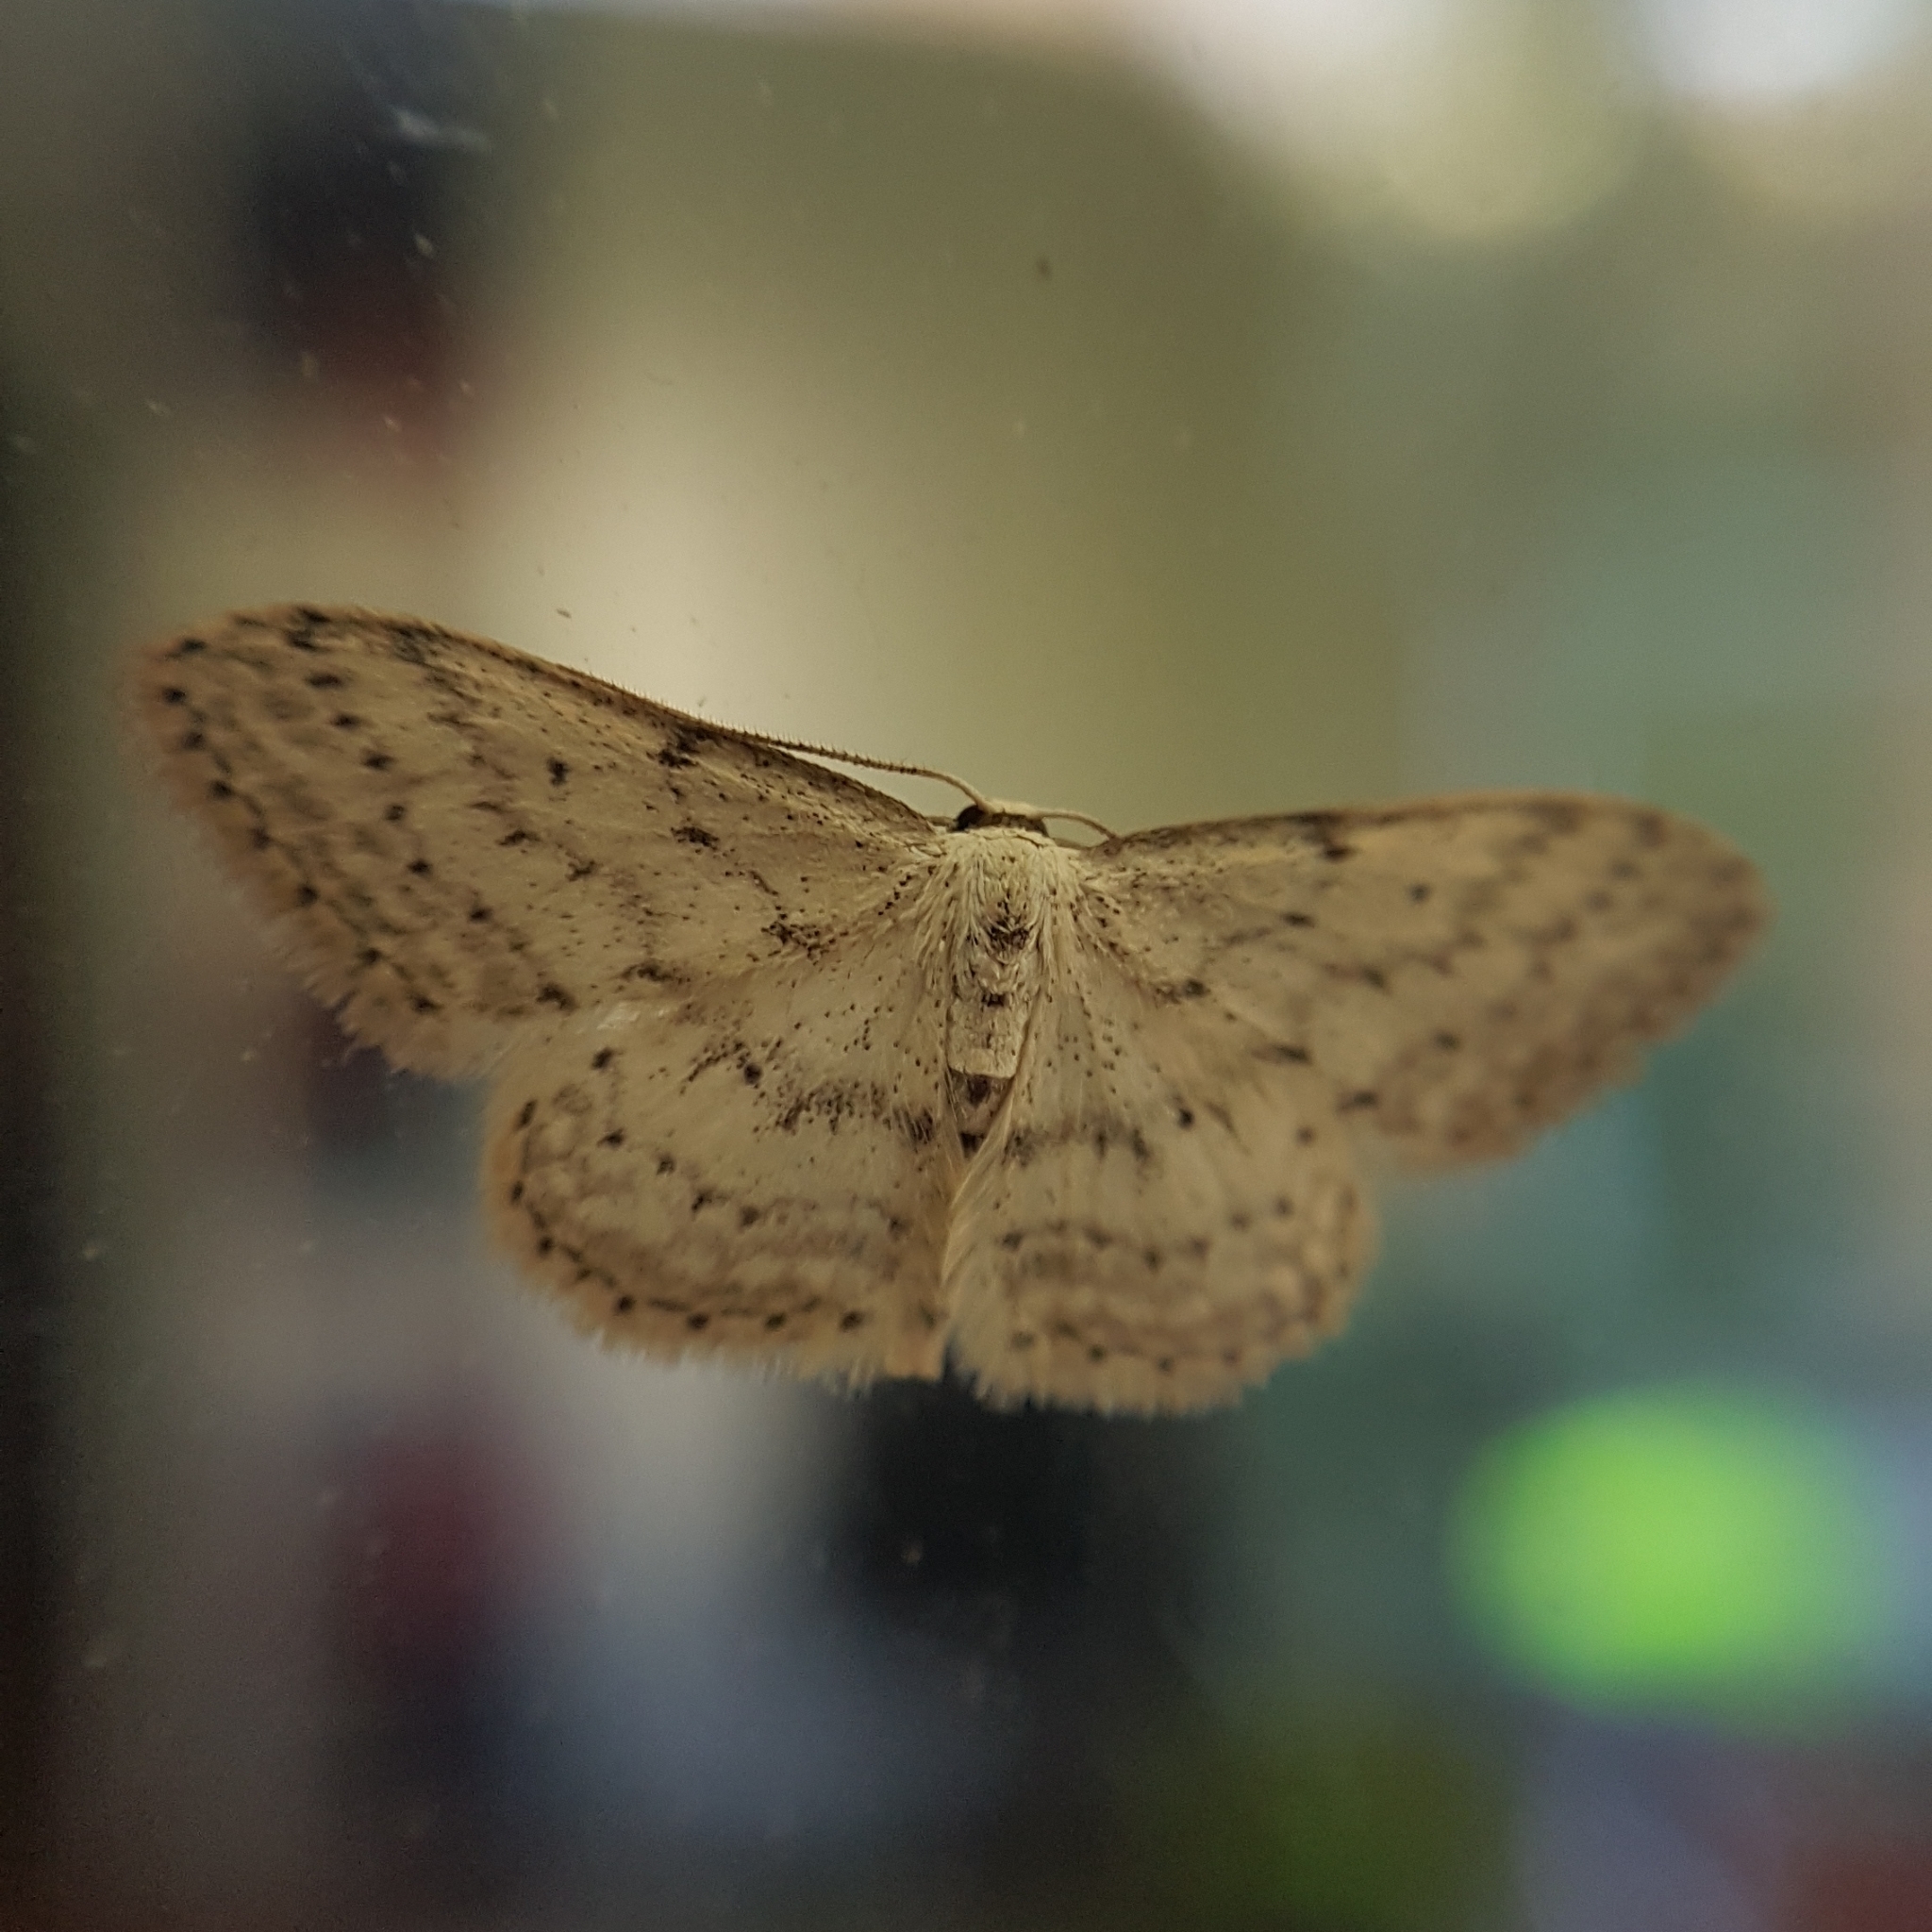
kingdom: Animalia
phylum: Arthropoda
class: Insecta
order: Lepidoptera
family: Geometridae
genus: Idaea
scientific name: Idaea seriata
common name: Small dusty wave
